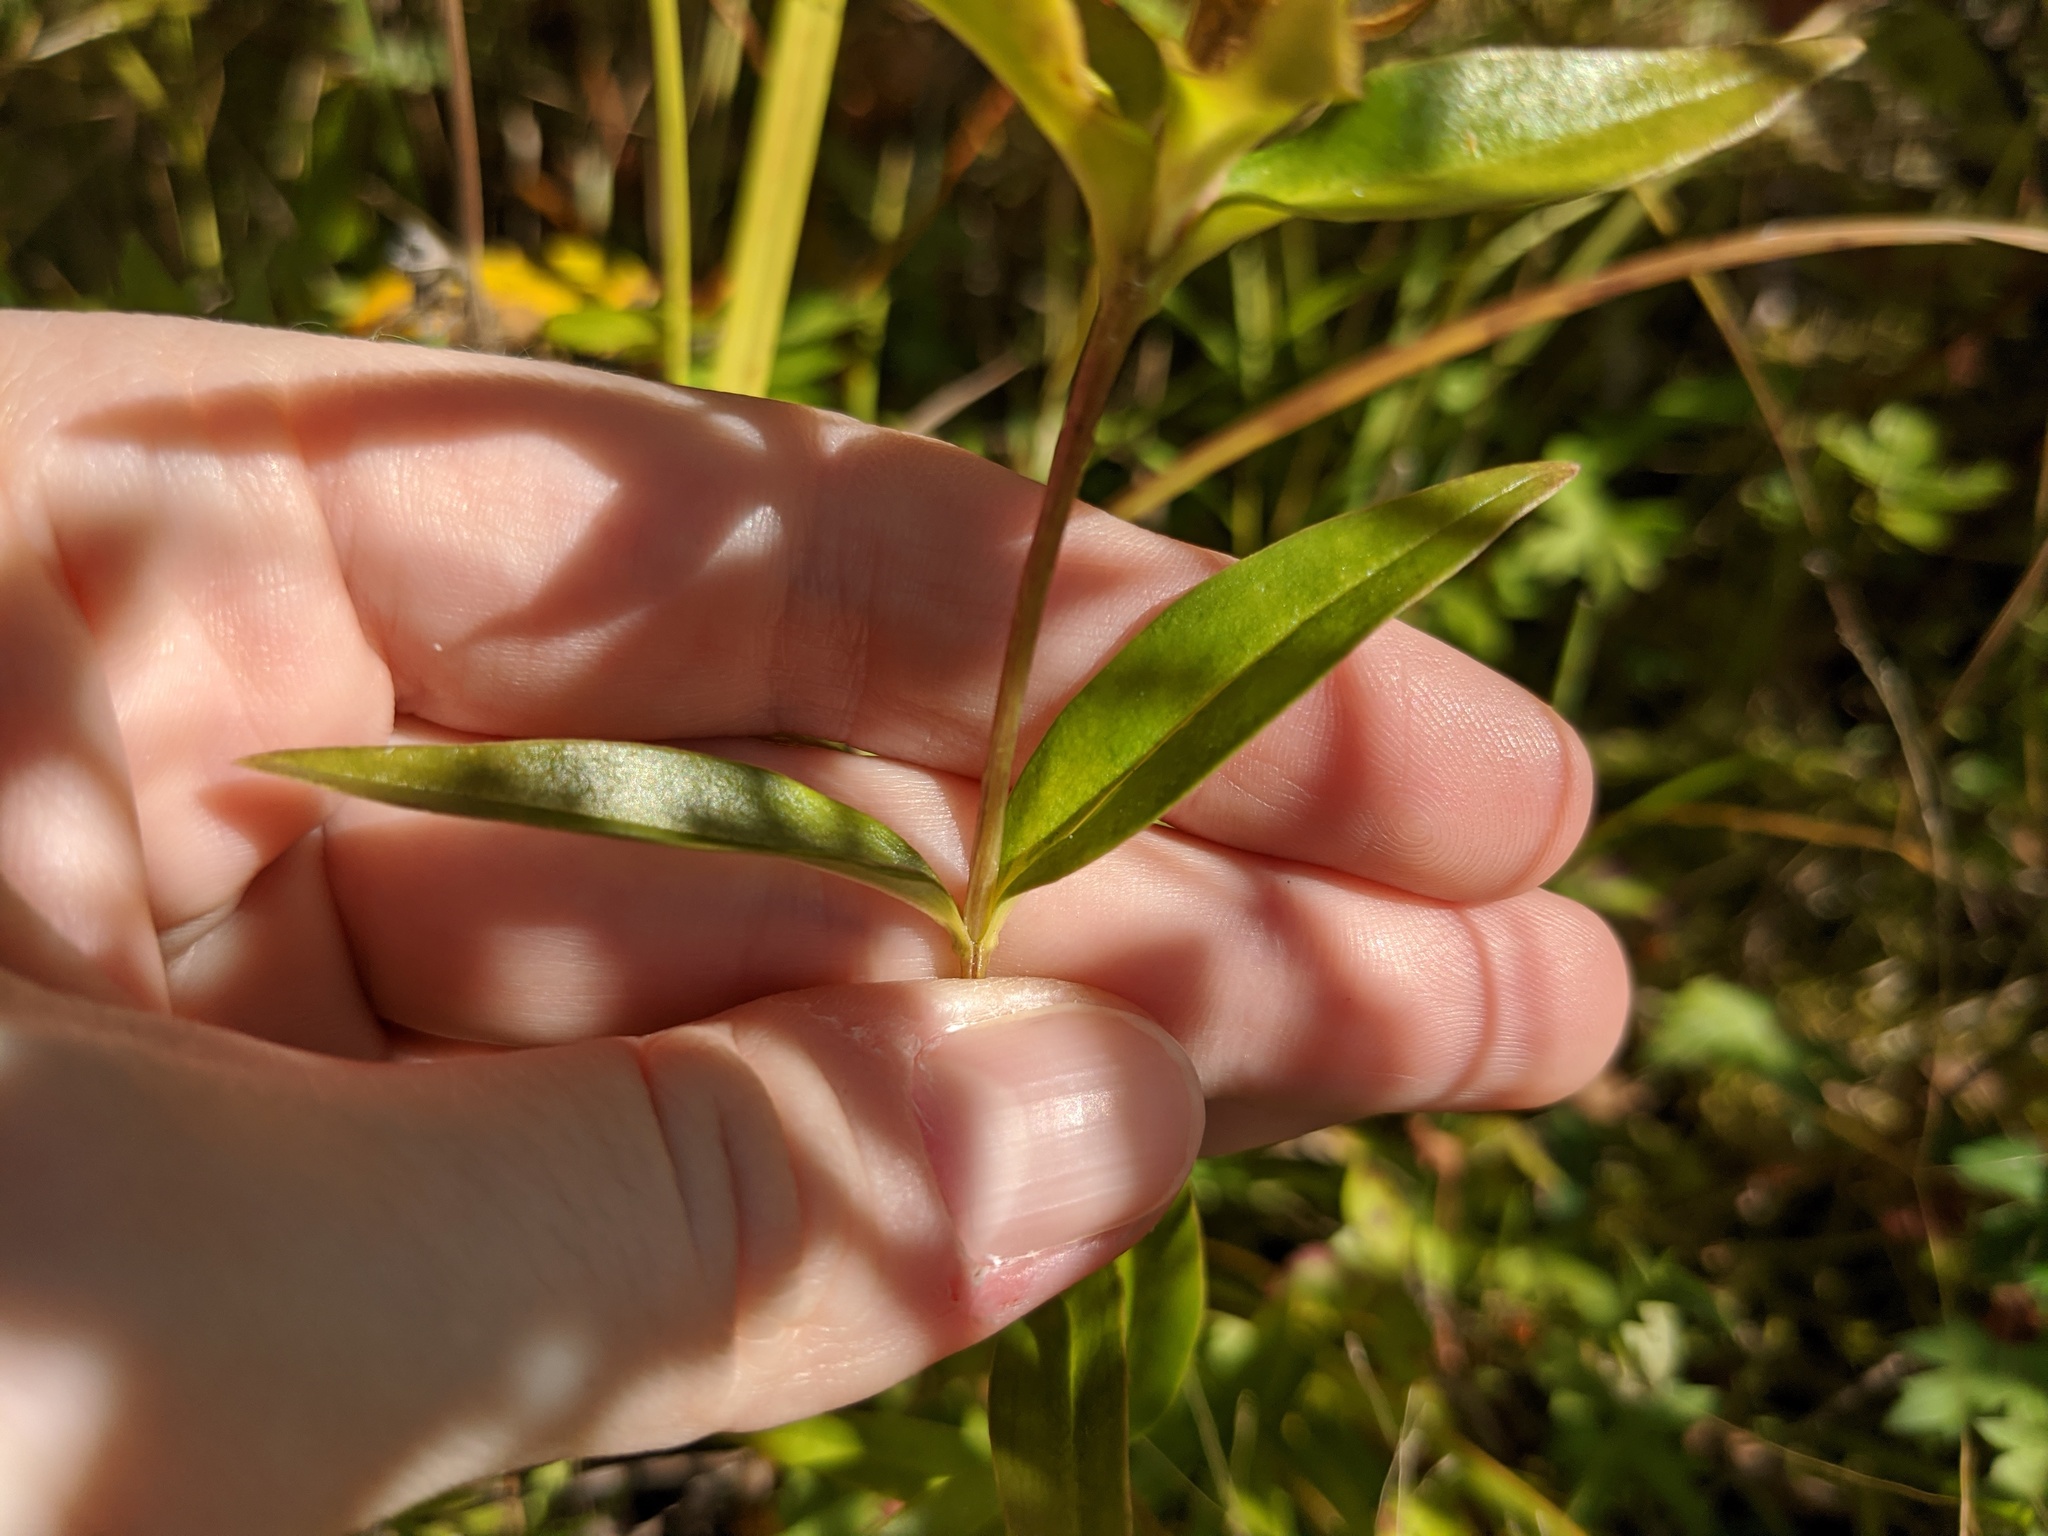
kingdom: Plantae
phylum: Tracheophyta
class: Magnoliopsida
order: Gentianales
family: Gentianaceae
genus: Gentiana
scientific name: Gentiana linearis
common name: Bastard gentian
